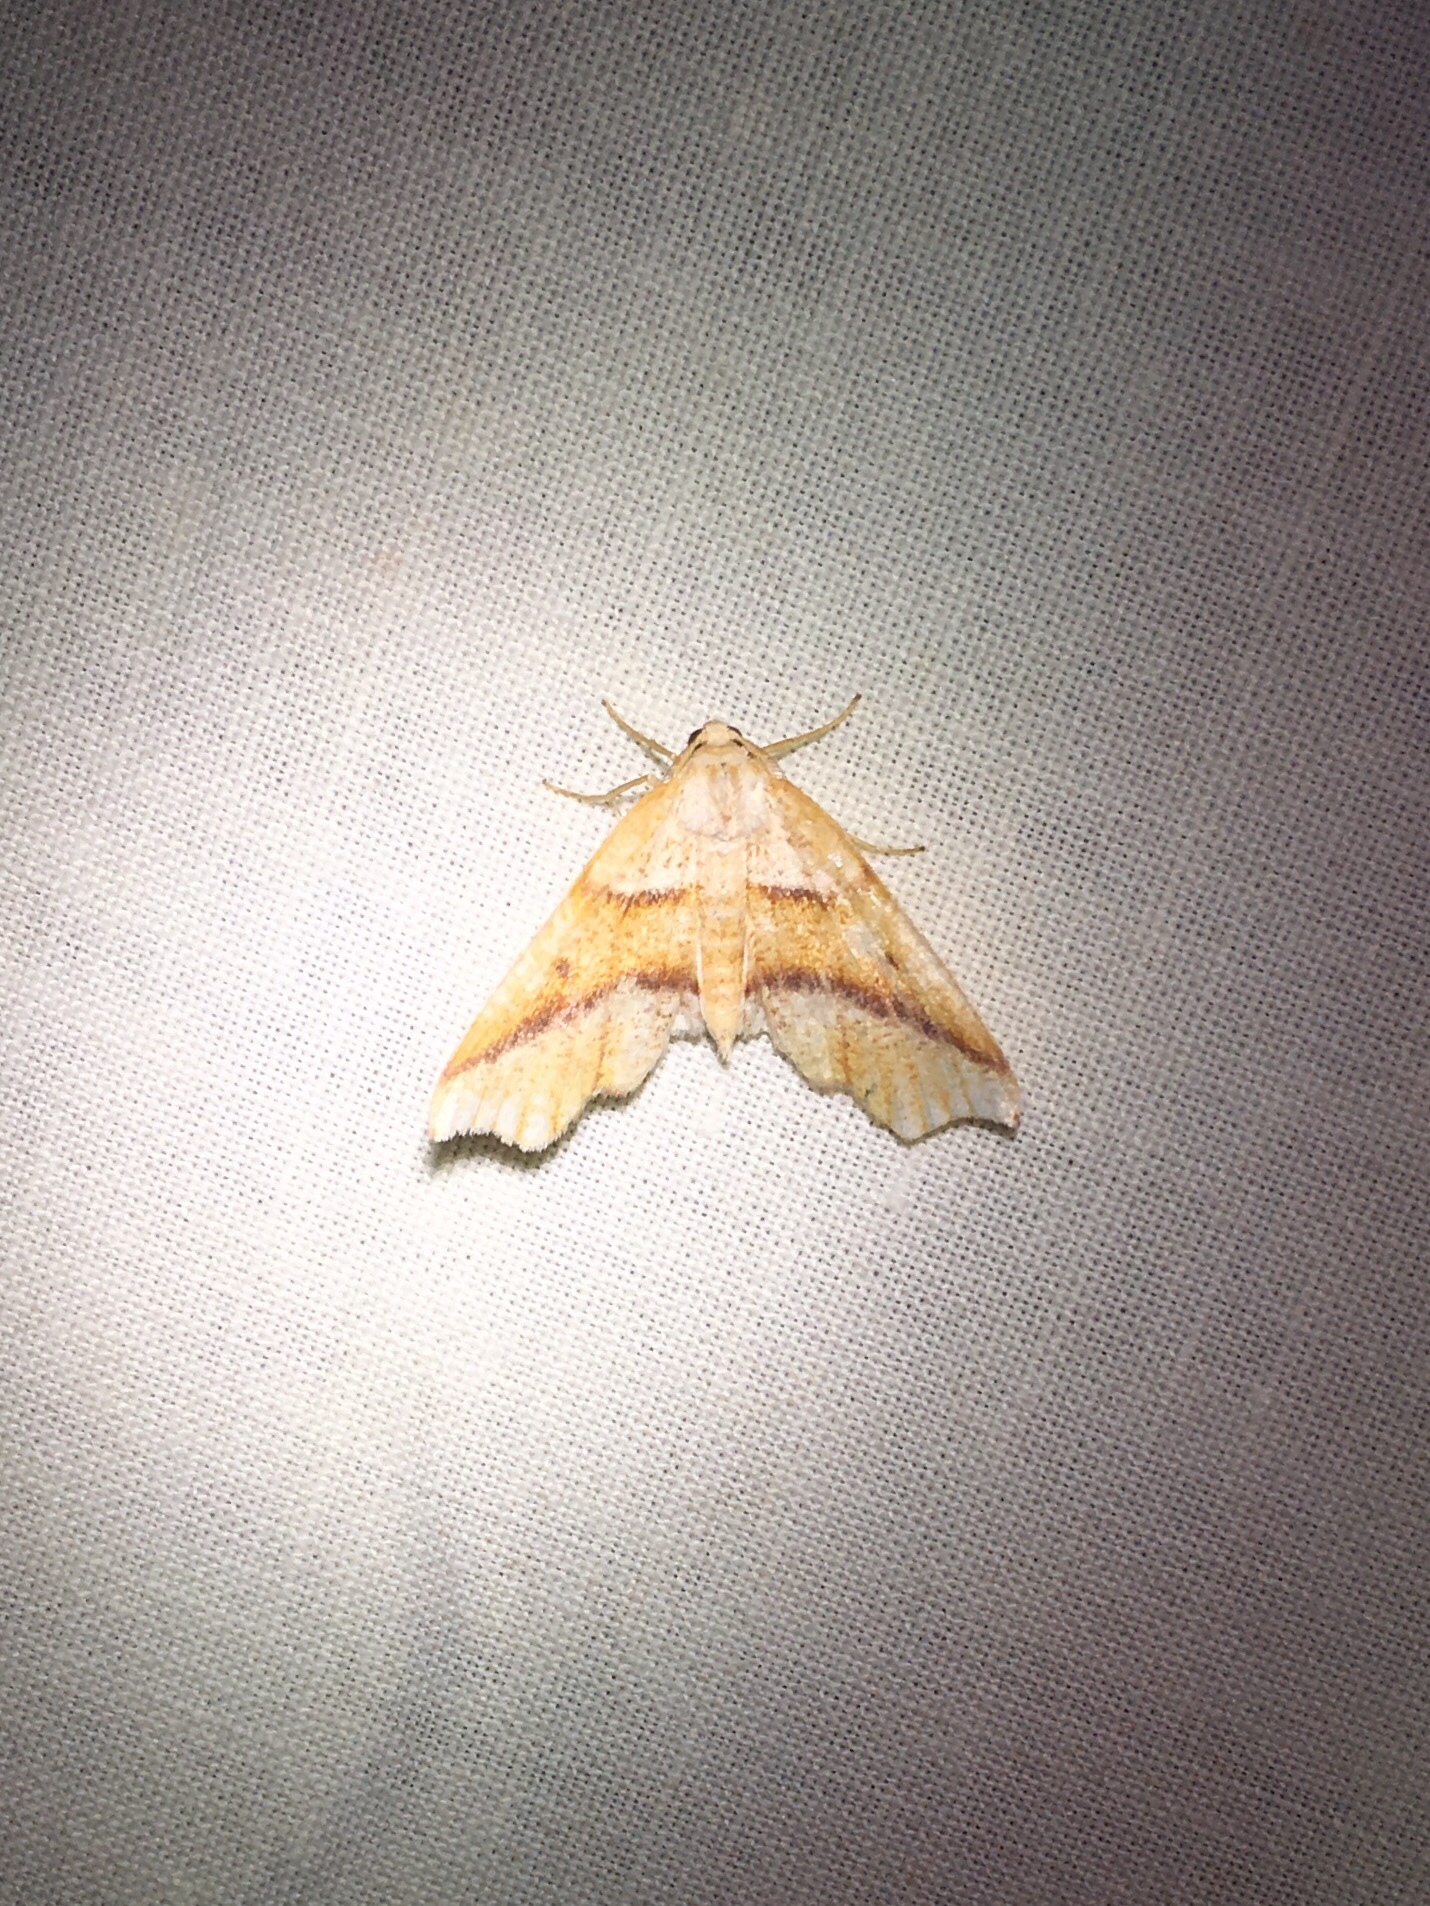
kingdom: Animalia
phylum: Arthropoda
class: Insecta
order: Lepidoptera
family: Geometridae
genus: Plagodis
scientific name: Plagodis alcoolaria
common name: Hollow-spotted plagodis
